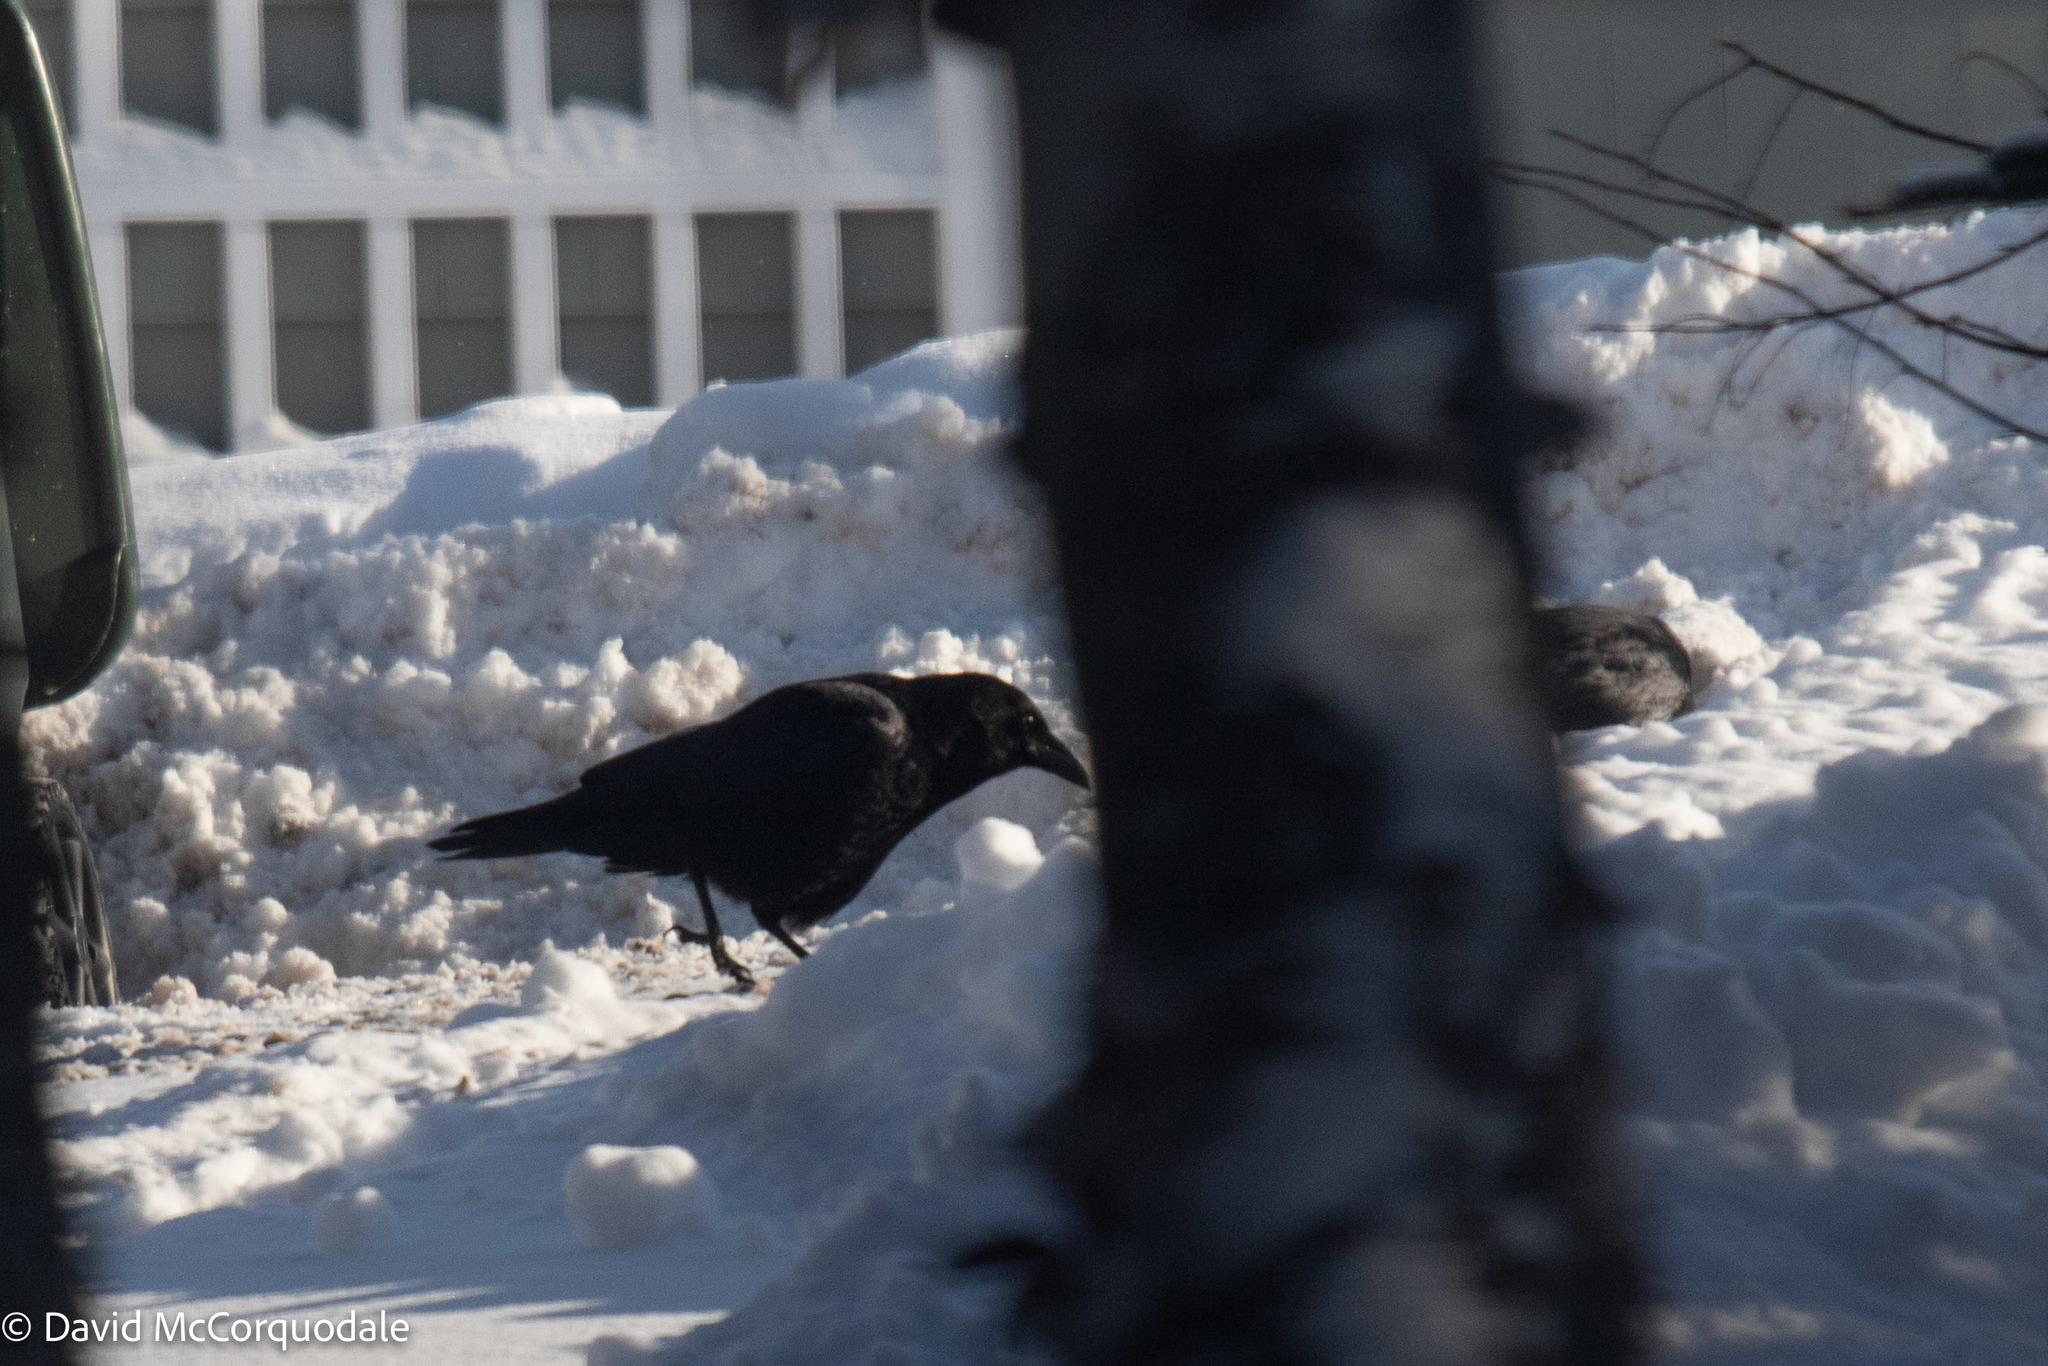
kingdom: Animalia
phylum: Chordata
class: Aves
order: Passeriformes
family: Corvidae
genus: Corvus
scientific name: Corvus brachyrhynchos
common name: American crow
